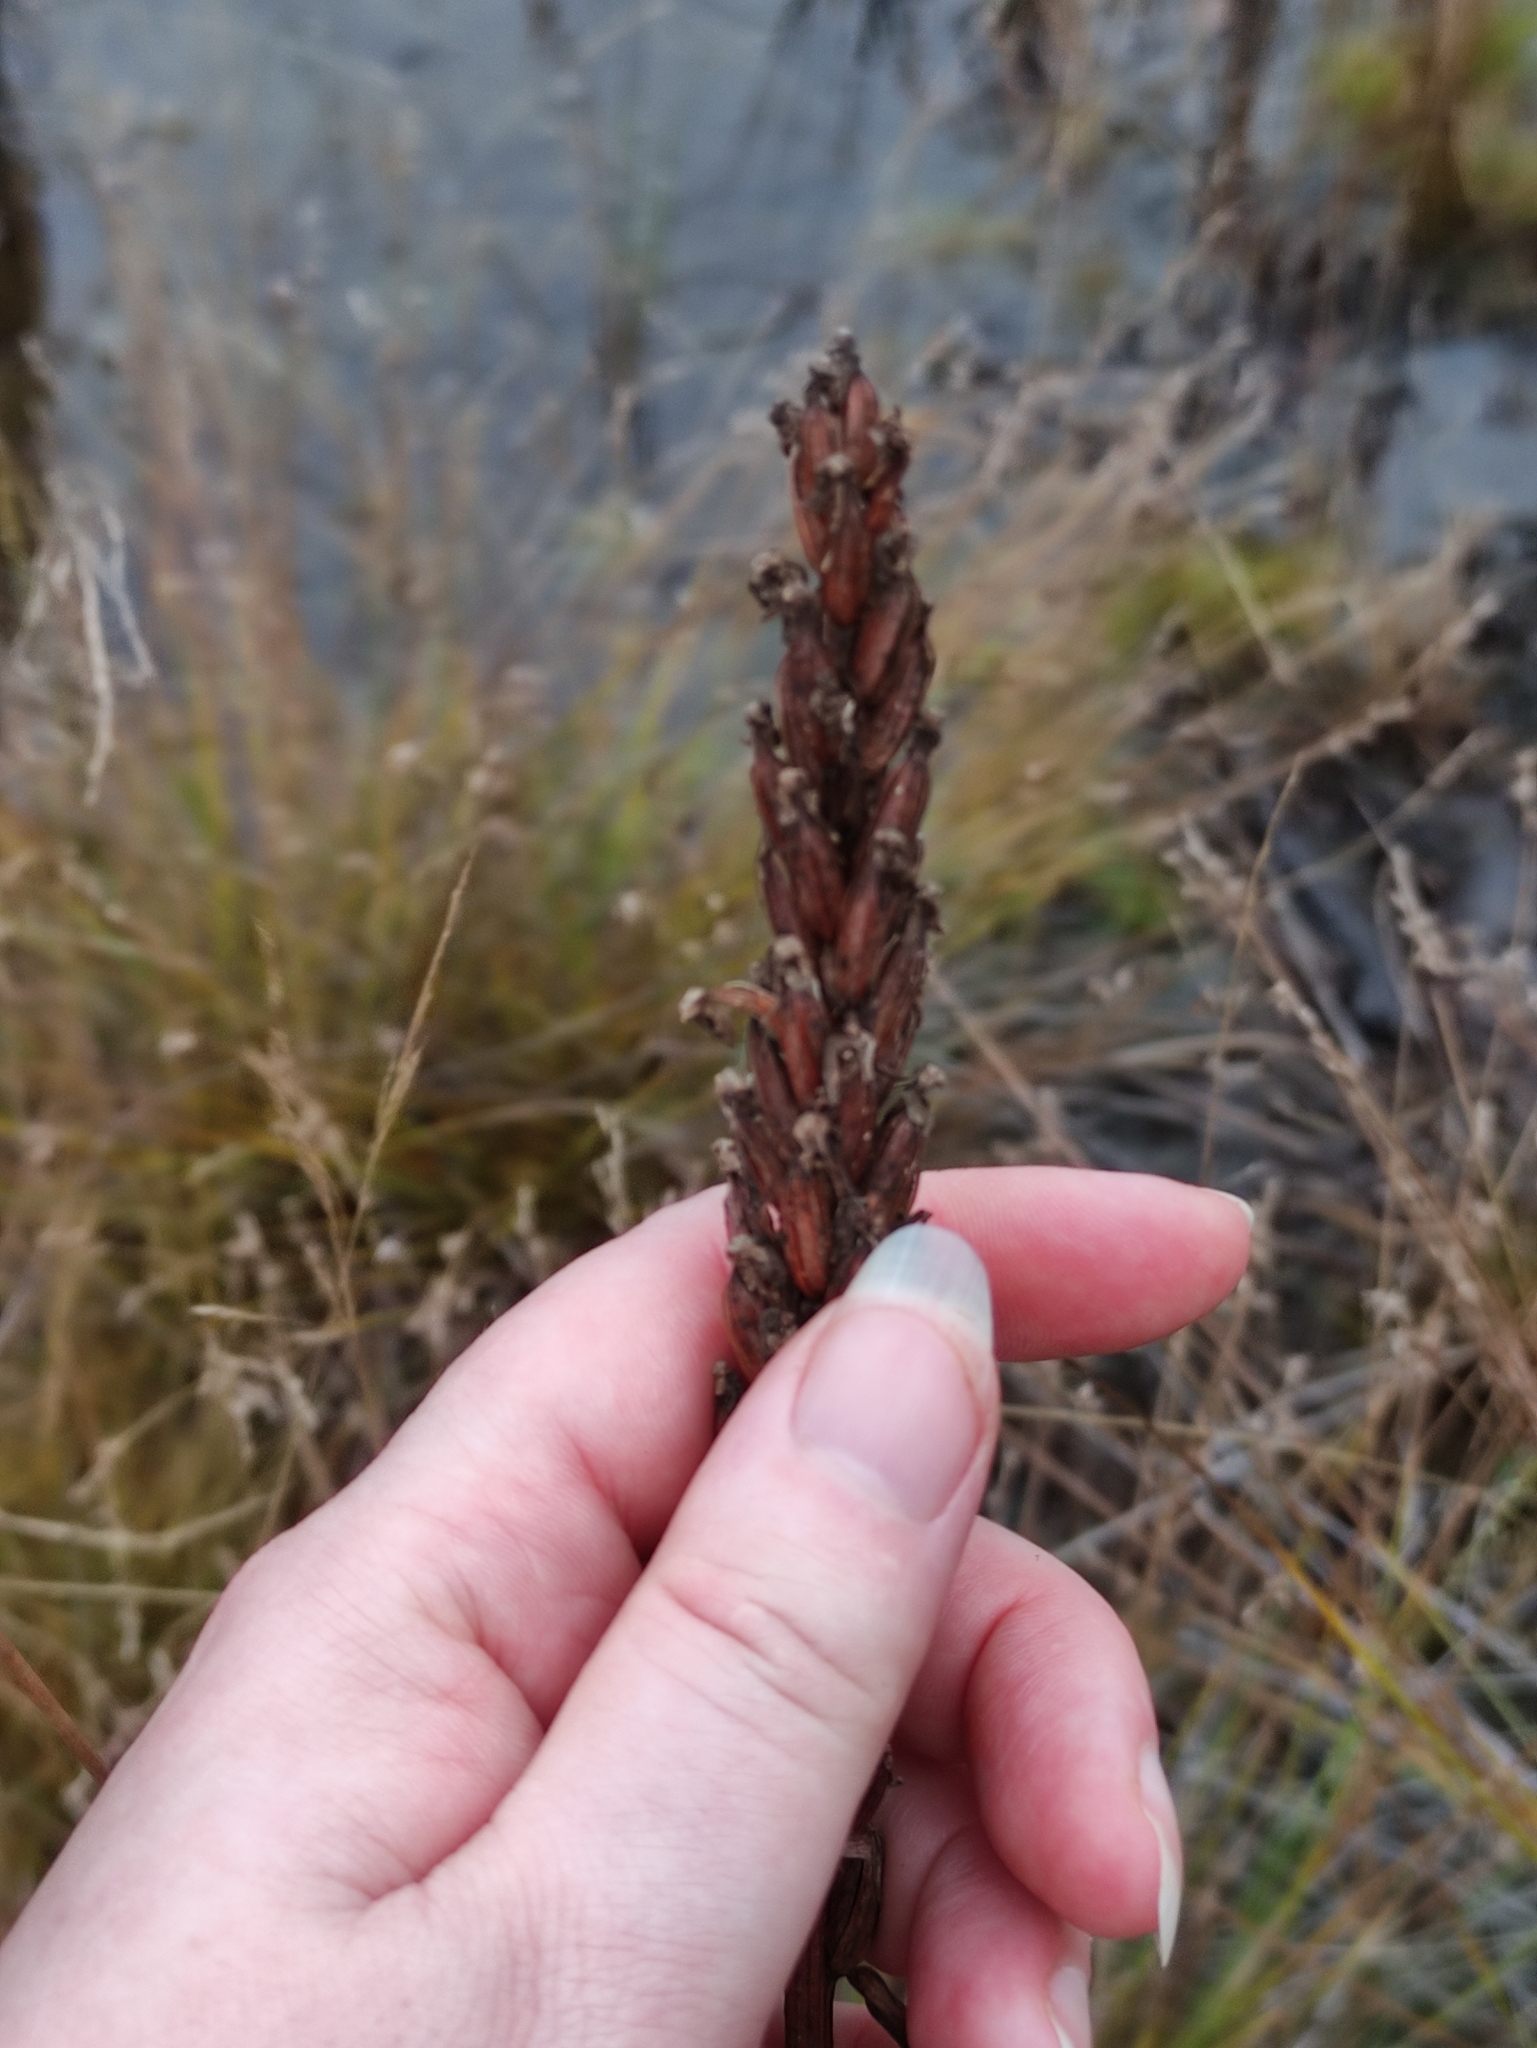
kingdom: Plantae
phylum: Tracheophyta
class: Liliopsida
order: Asparagales
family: Orchidaceae
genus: Dactylorhiza
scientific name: Dactylorhiza
